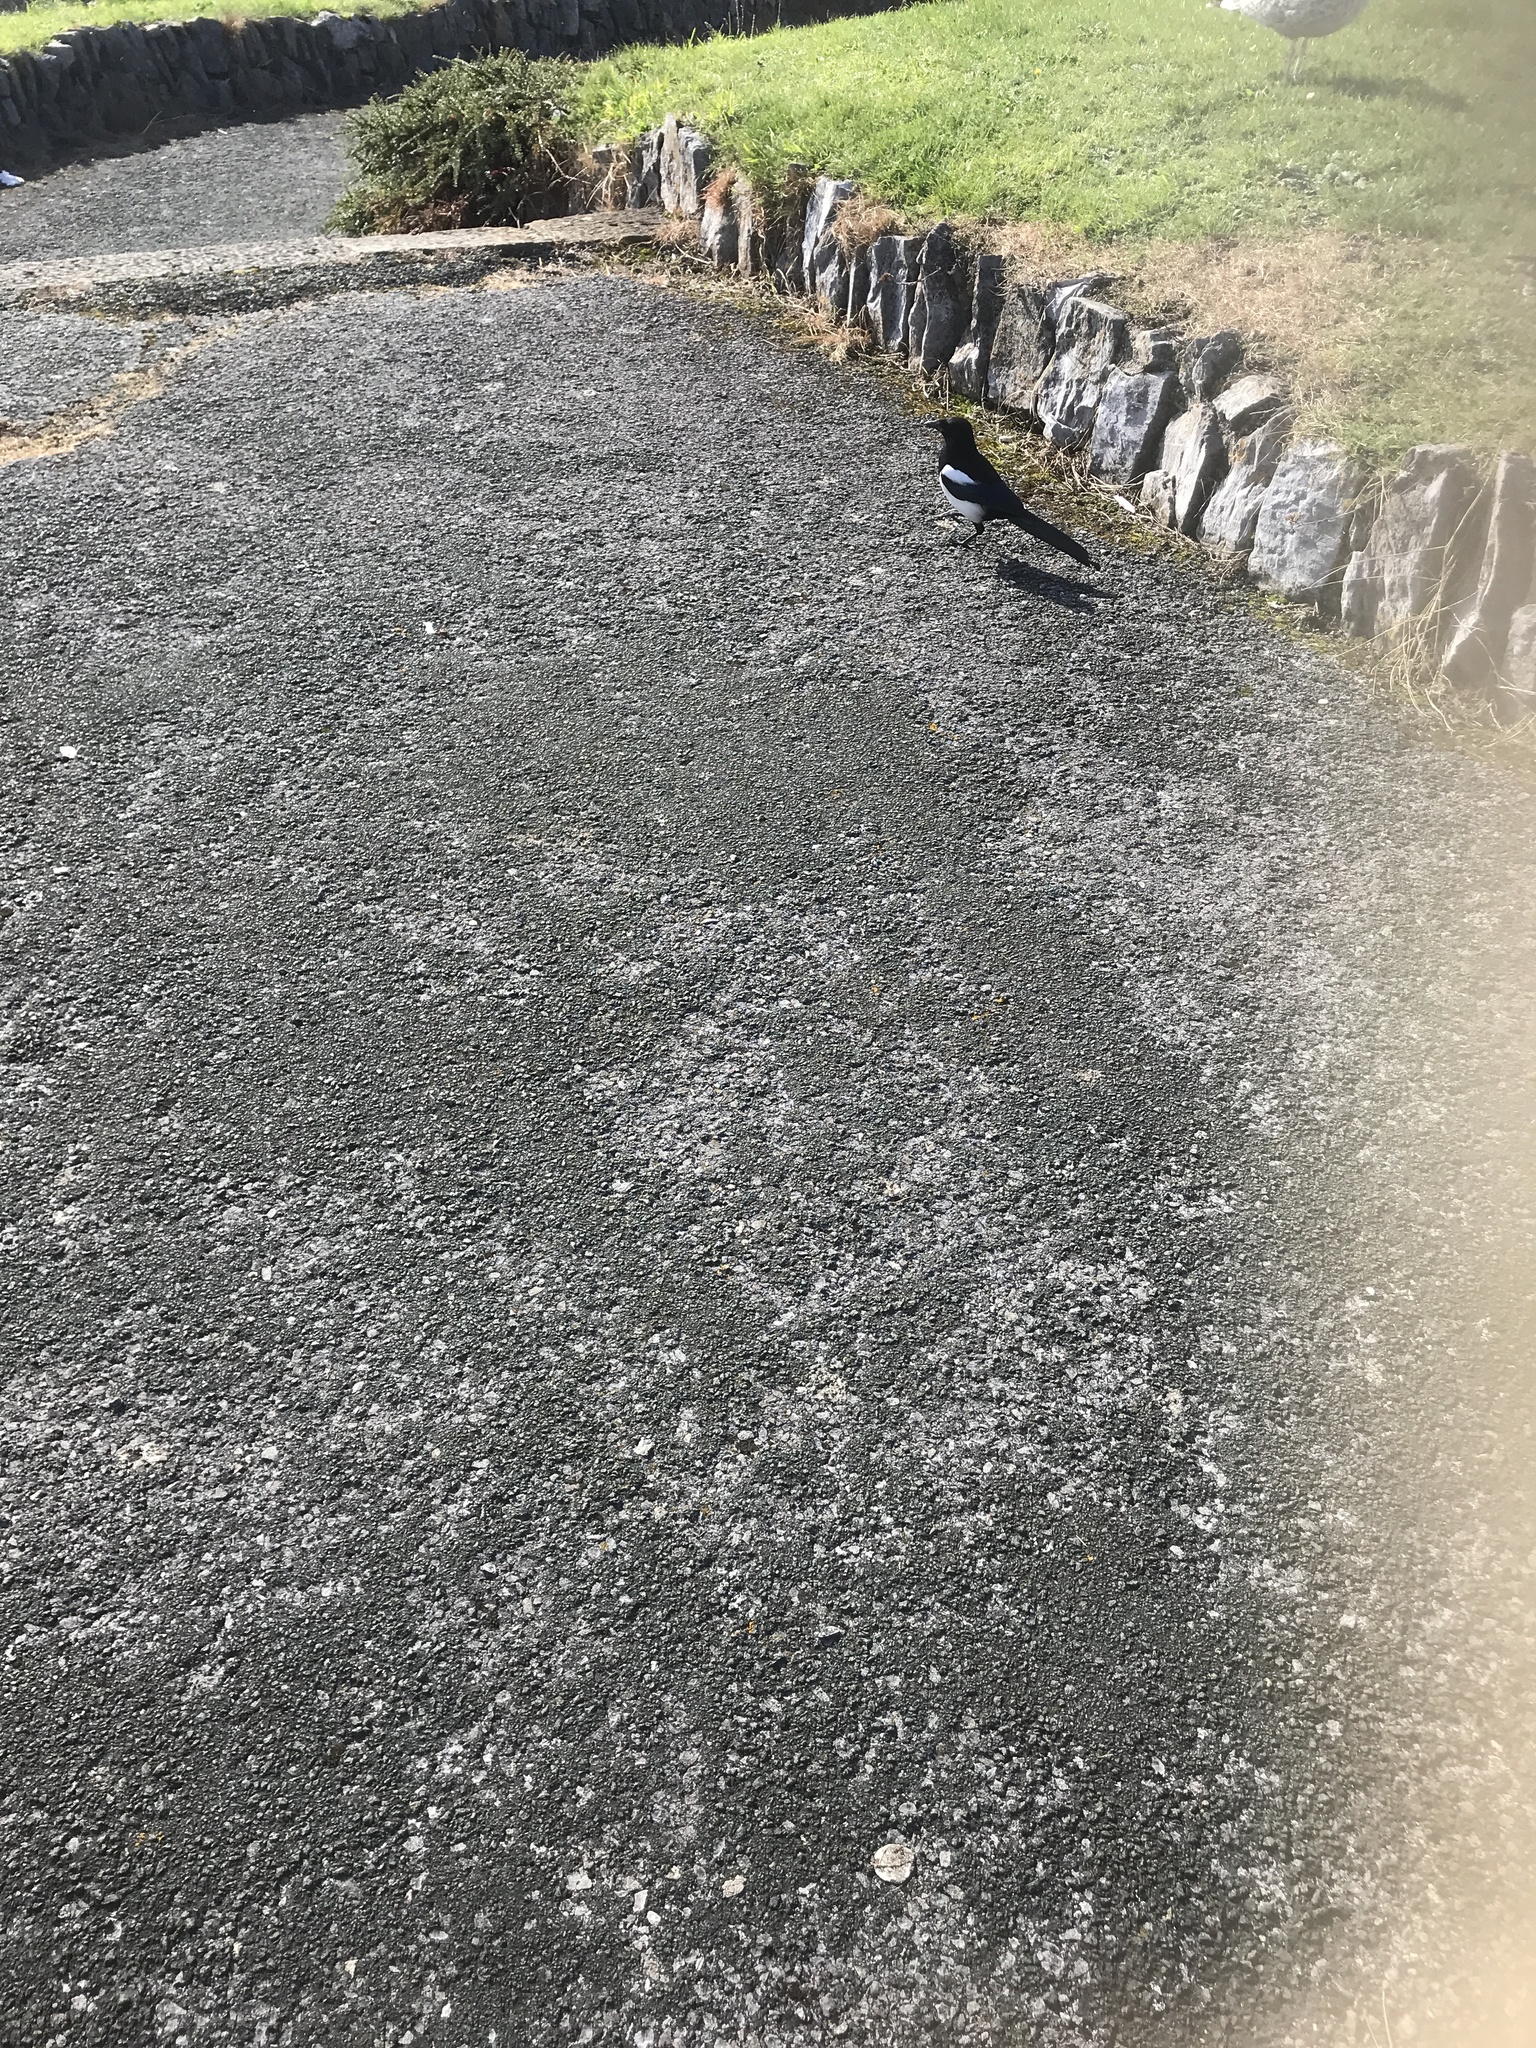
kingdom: Animalia
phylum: Chordata
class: Aves
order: Passeriformes
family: Corvidae
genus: Pica
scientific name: Pica pica
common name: Eurasian magpie
